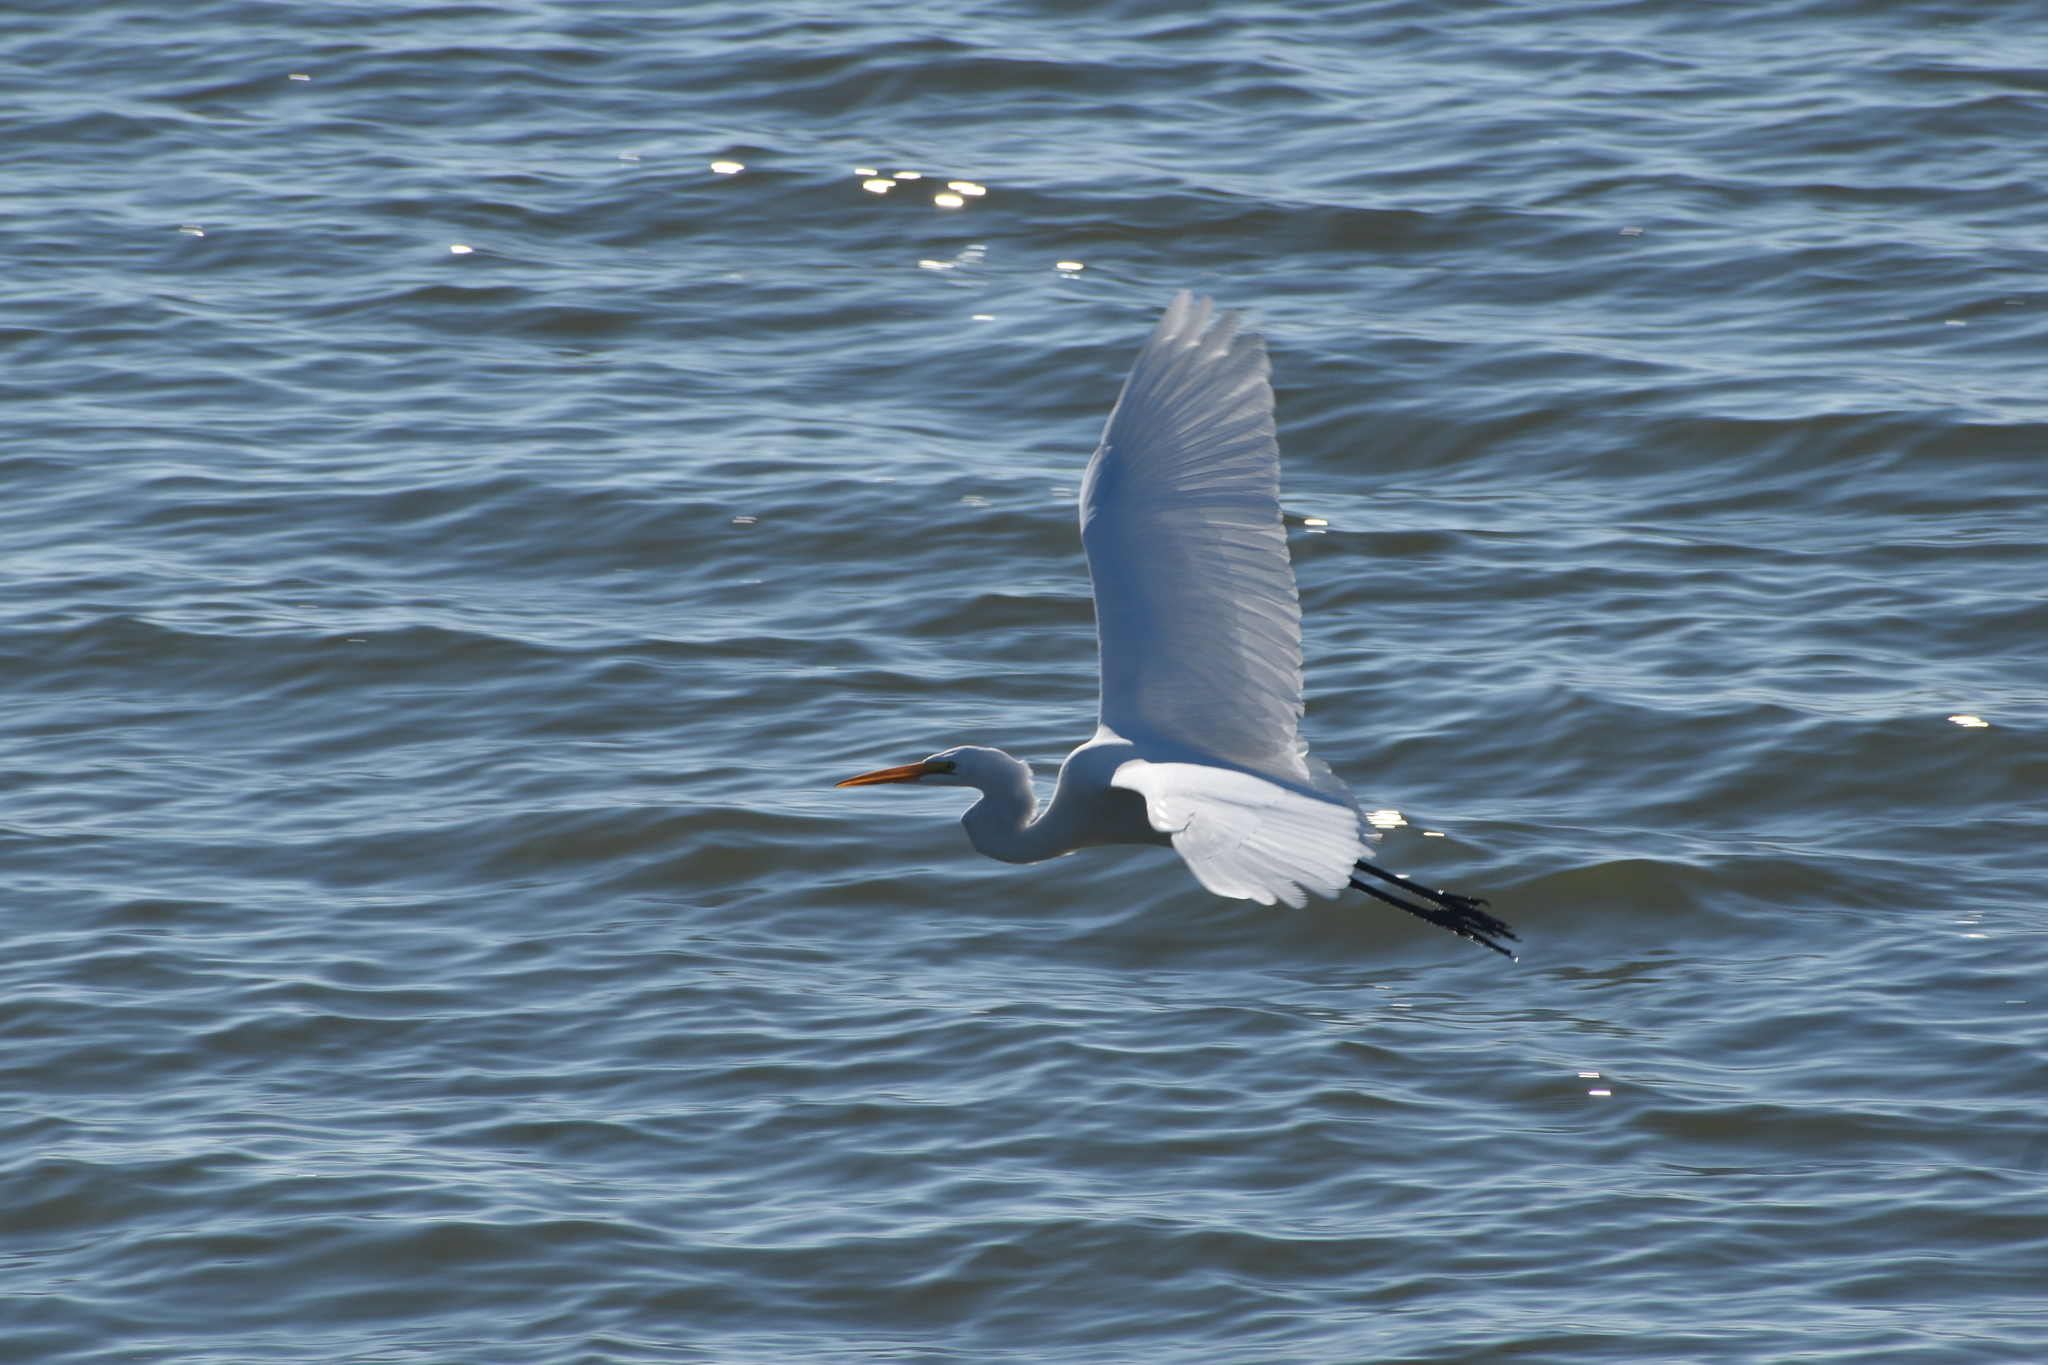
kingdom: Animalia
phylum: Chordata
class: Aves
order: Pelecaniformes
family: Ardeidae
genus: Ardea
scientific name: Ardea alba
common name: Great egret
